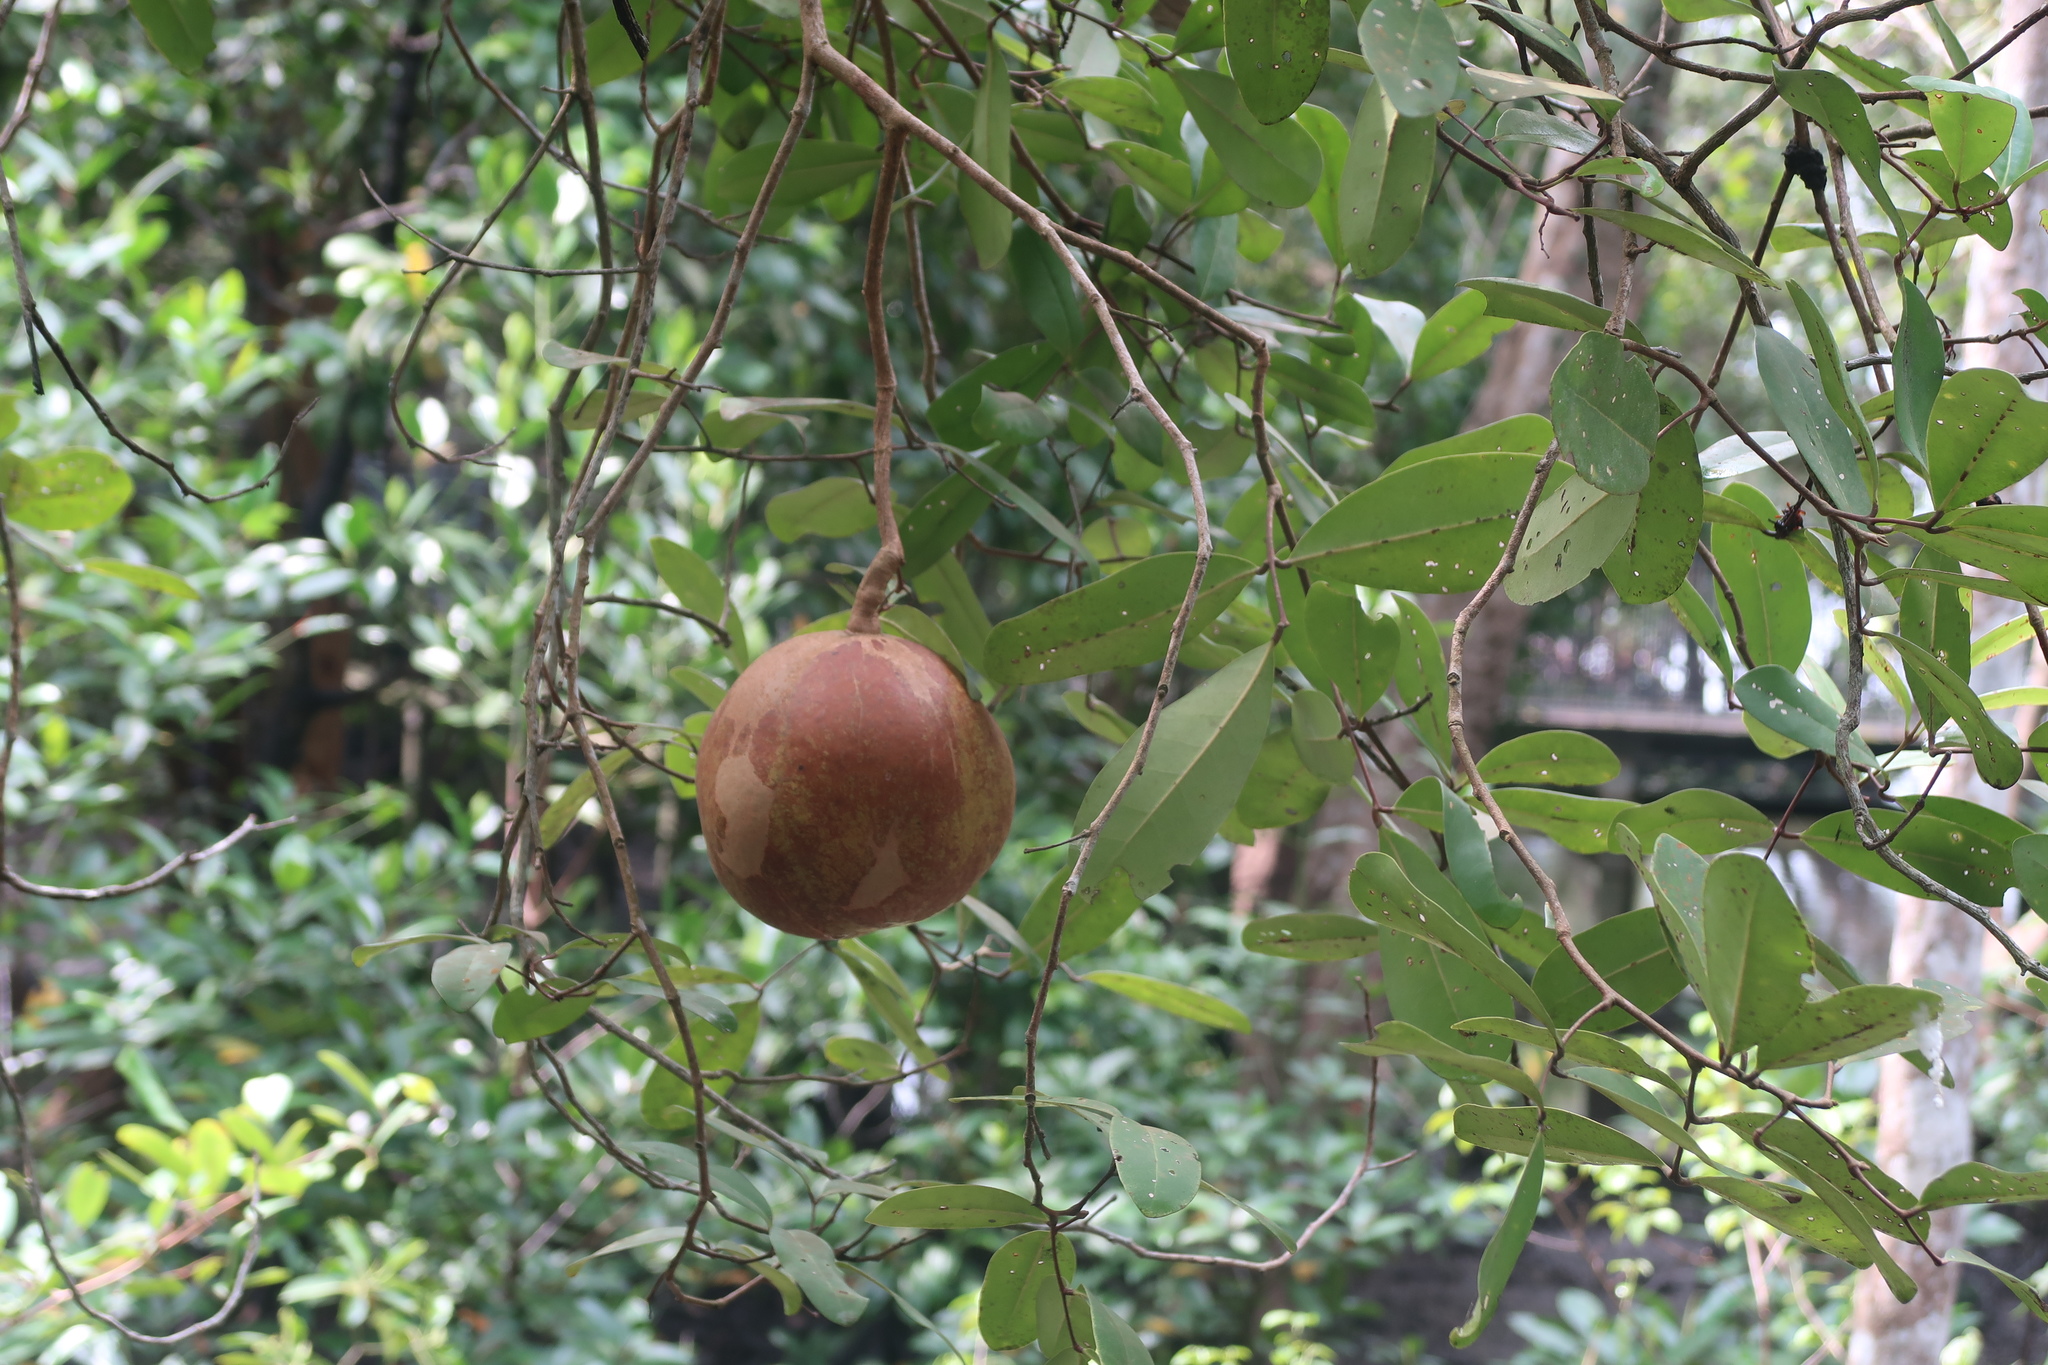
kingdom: Plantae
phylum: Tracheophyta
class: Magnoliopsida
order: Sapindales
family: Meliaceae
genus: Xylocarpus
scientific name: Xylocarpus granatum
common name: Apple mangrove
